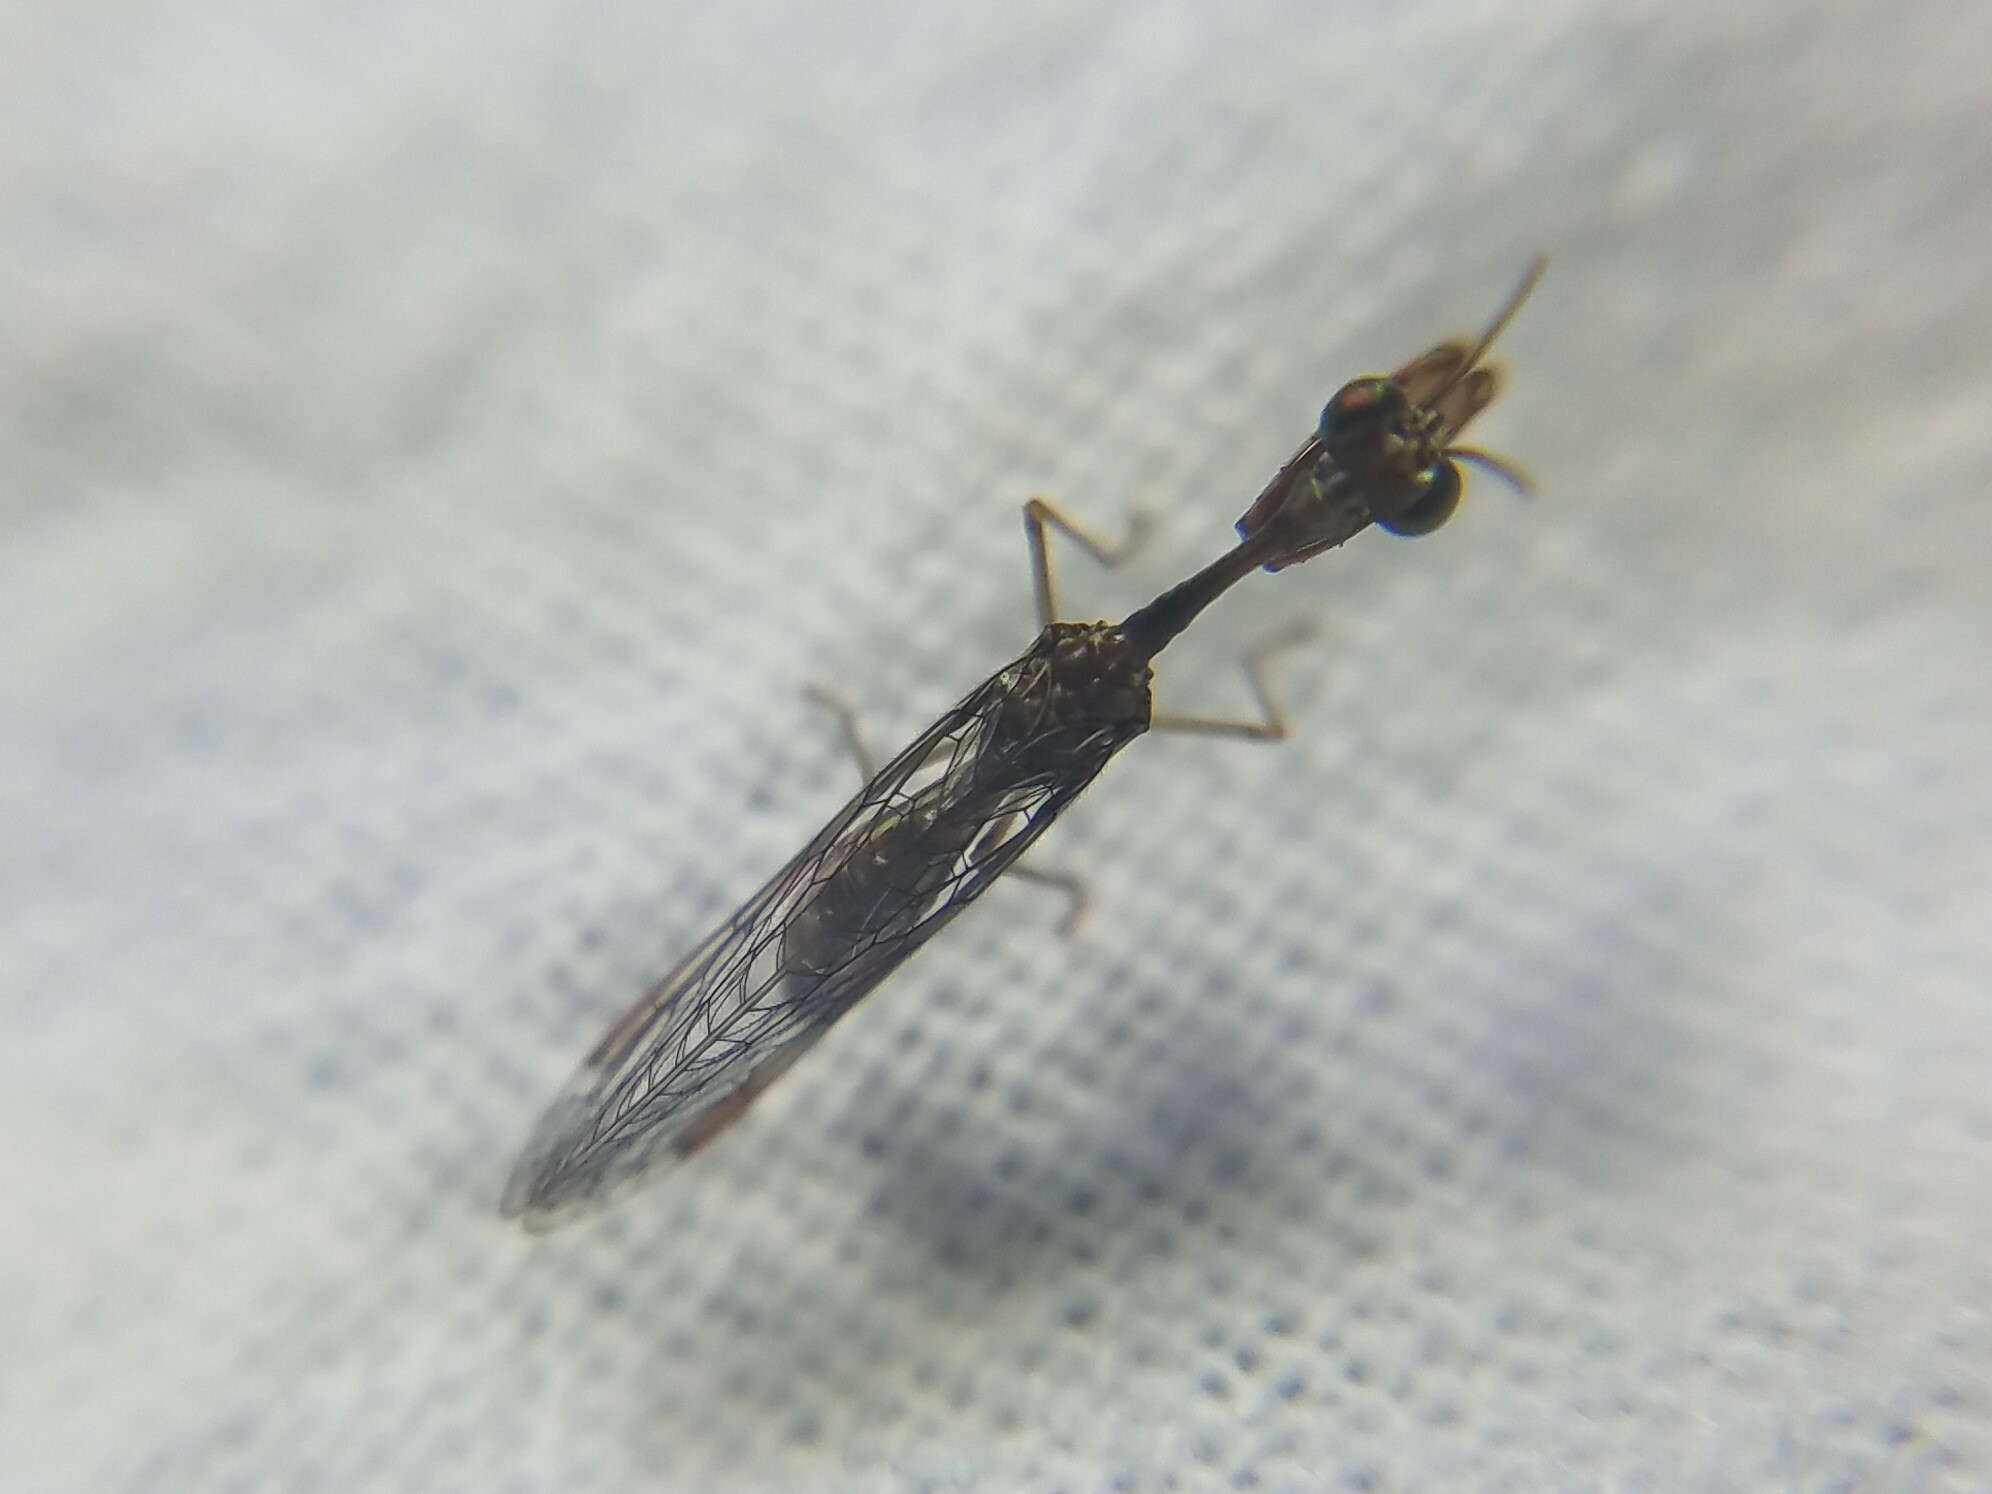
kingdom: Animalia
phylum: Arthropoda
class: Insecta
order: Neuroptera
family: Mantispidae
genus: Leptomantispa
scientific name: Leptomantispa pulchella
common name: Stevens's mantidfly
